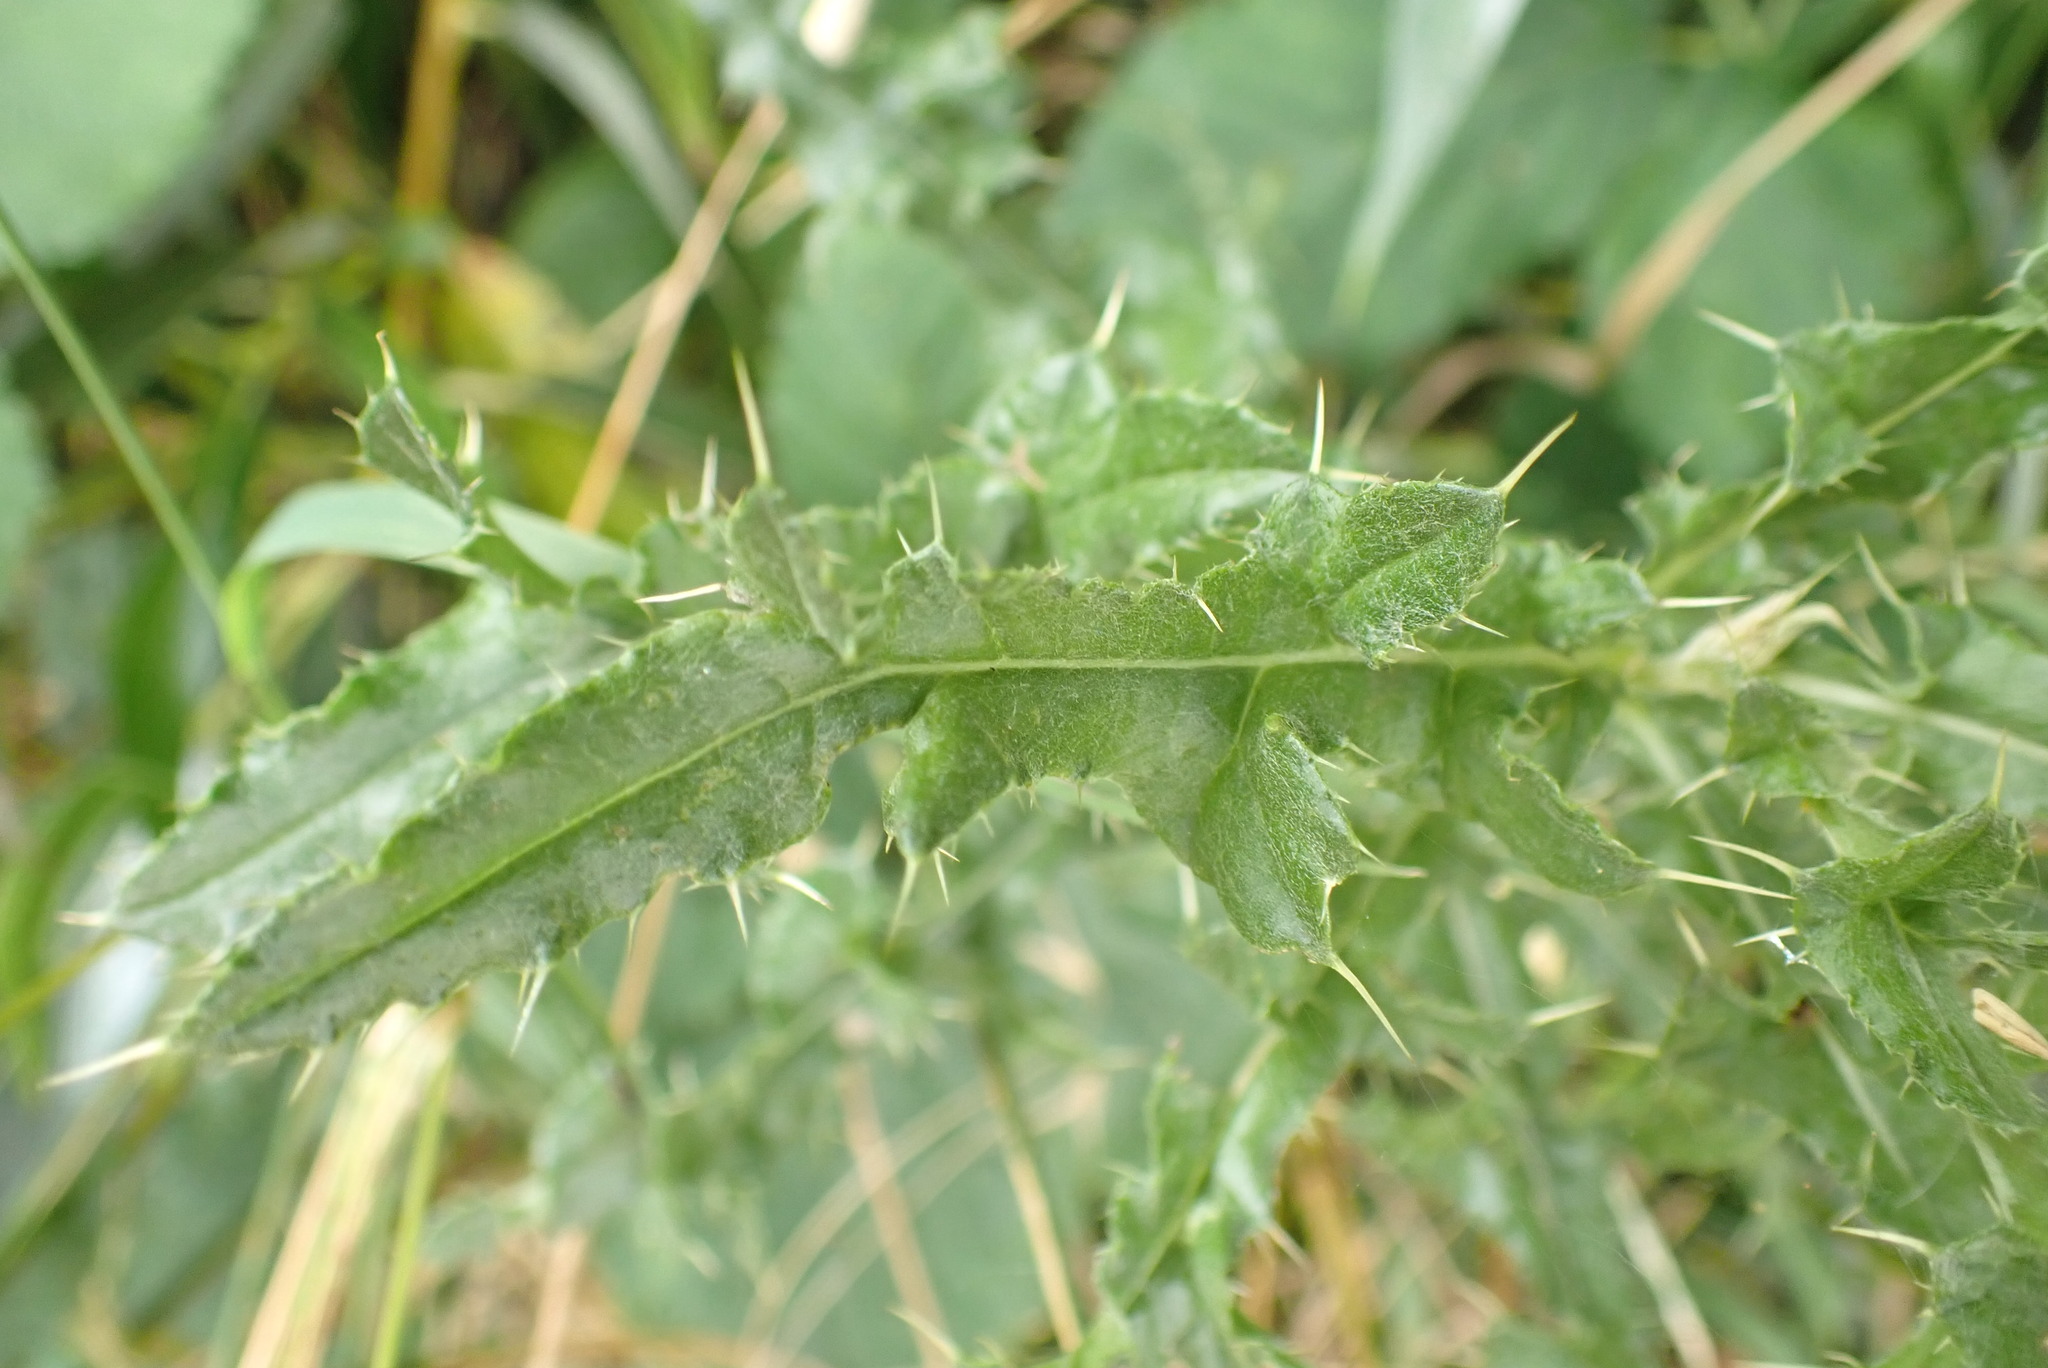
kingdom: Plantae
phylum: Tracheophyta
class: Magnoliopsida
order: Asterales
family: Asteraceae
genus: Cirsium
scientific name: Cirsium arvense
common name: Creeping thistle
